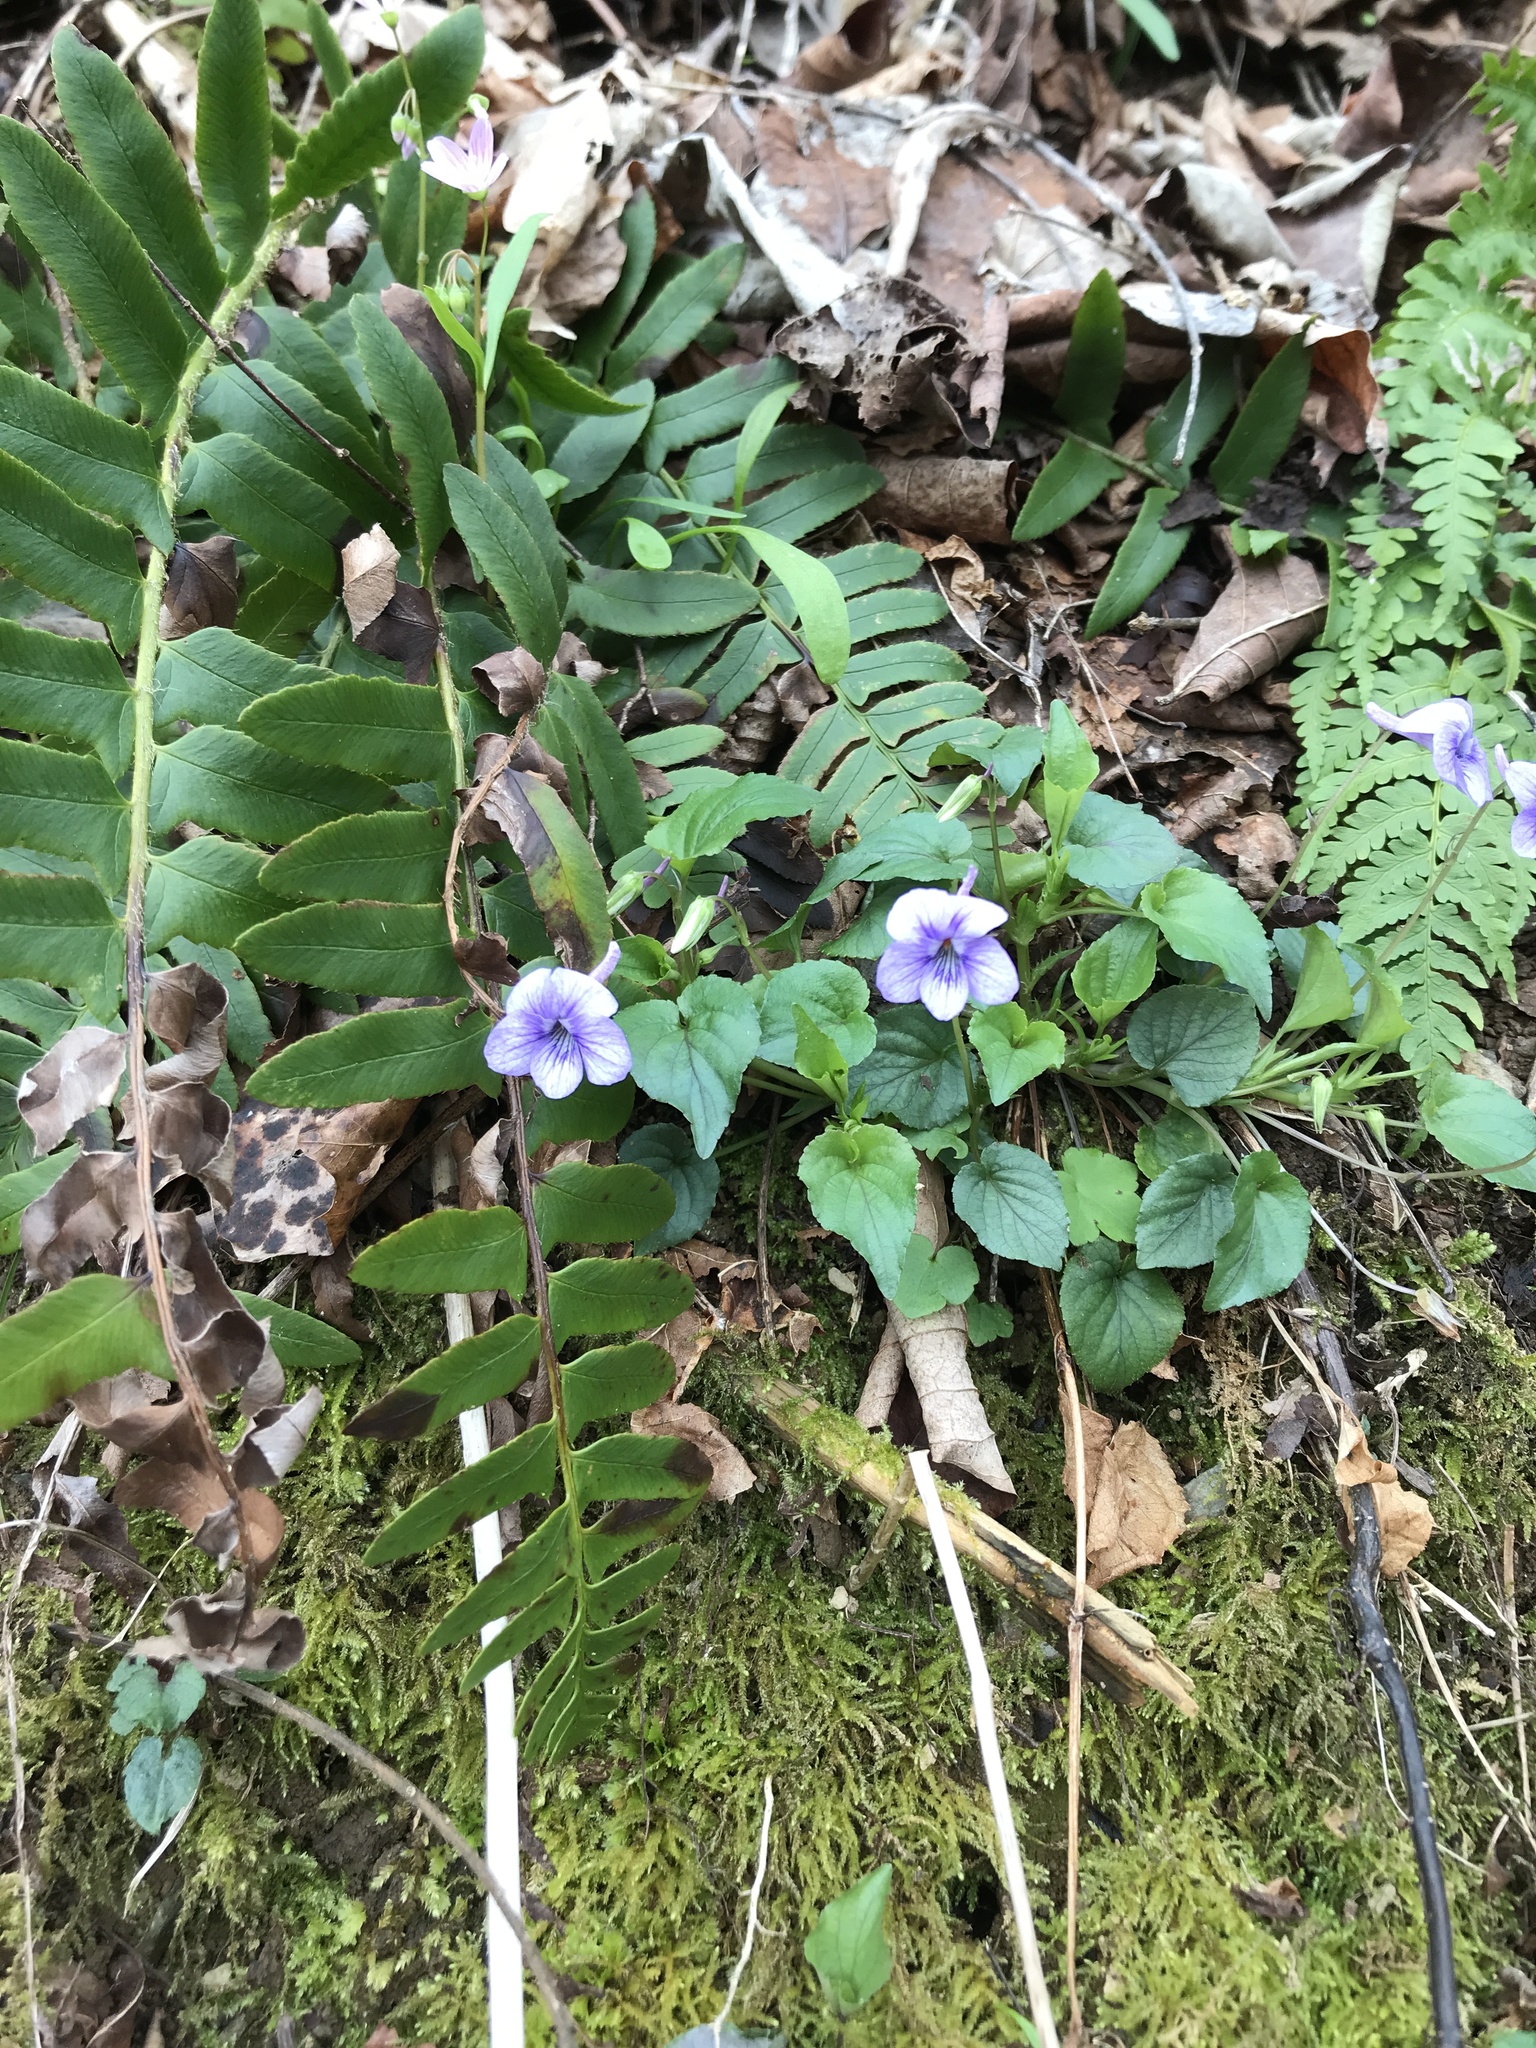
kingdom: Plantae
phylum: Tracheophyta
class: Magnoliopsida
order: Malpighiales
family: Violaceae
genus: Viola
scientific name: Viola rostrata
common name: Long-spur violet
